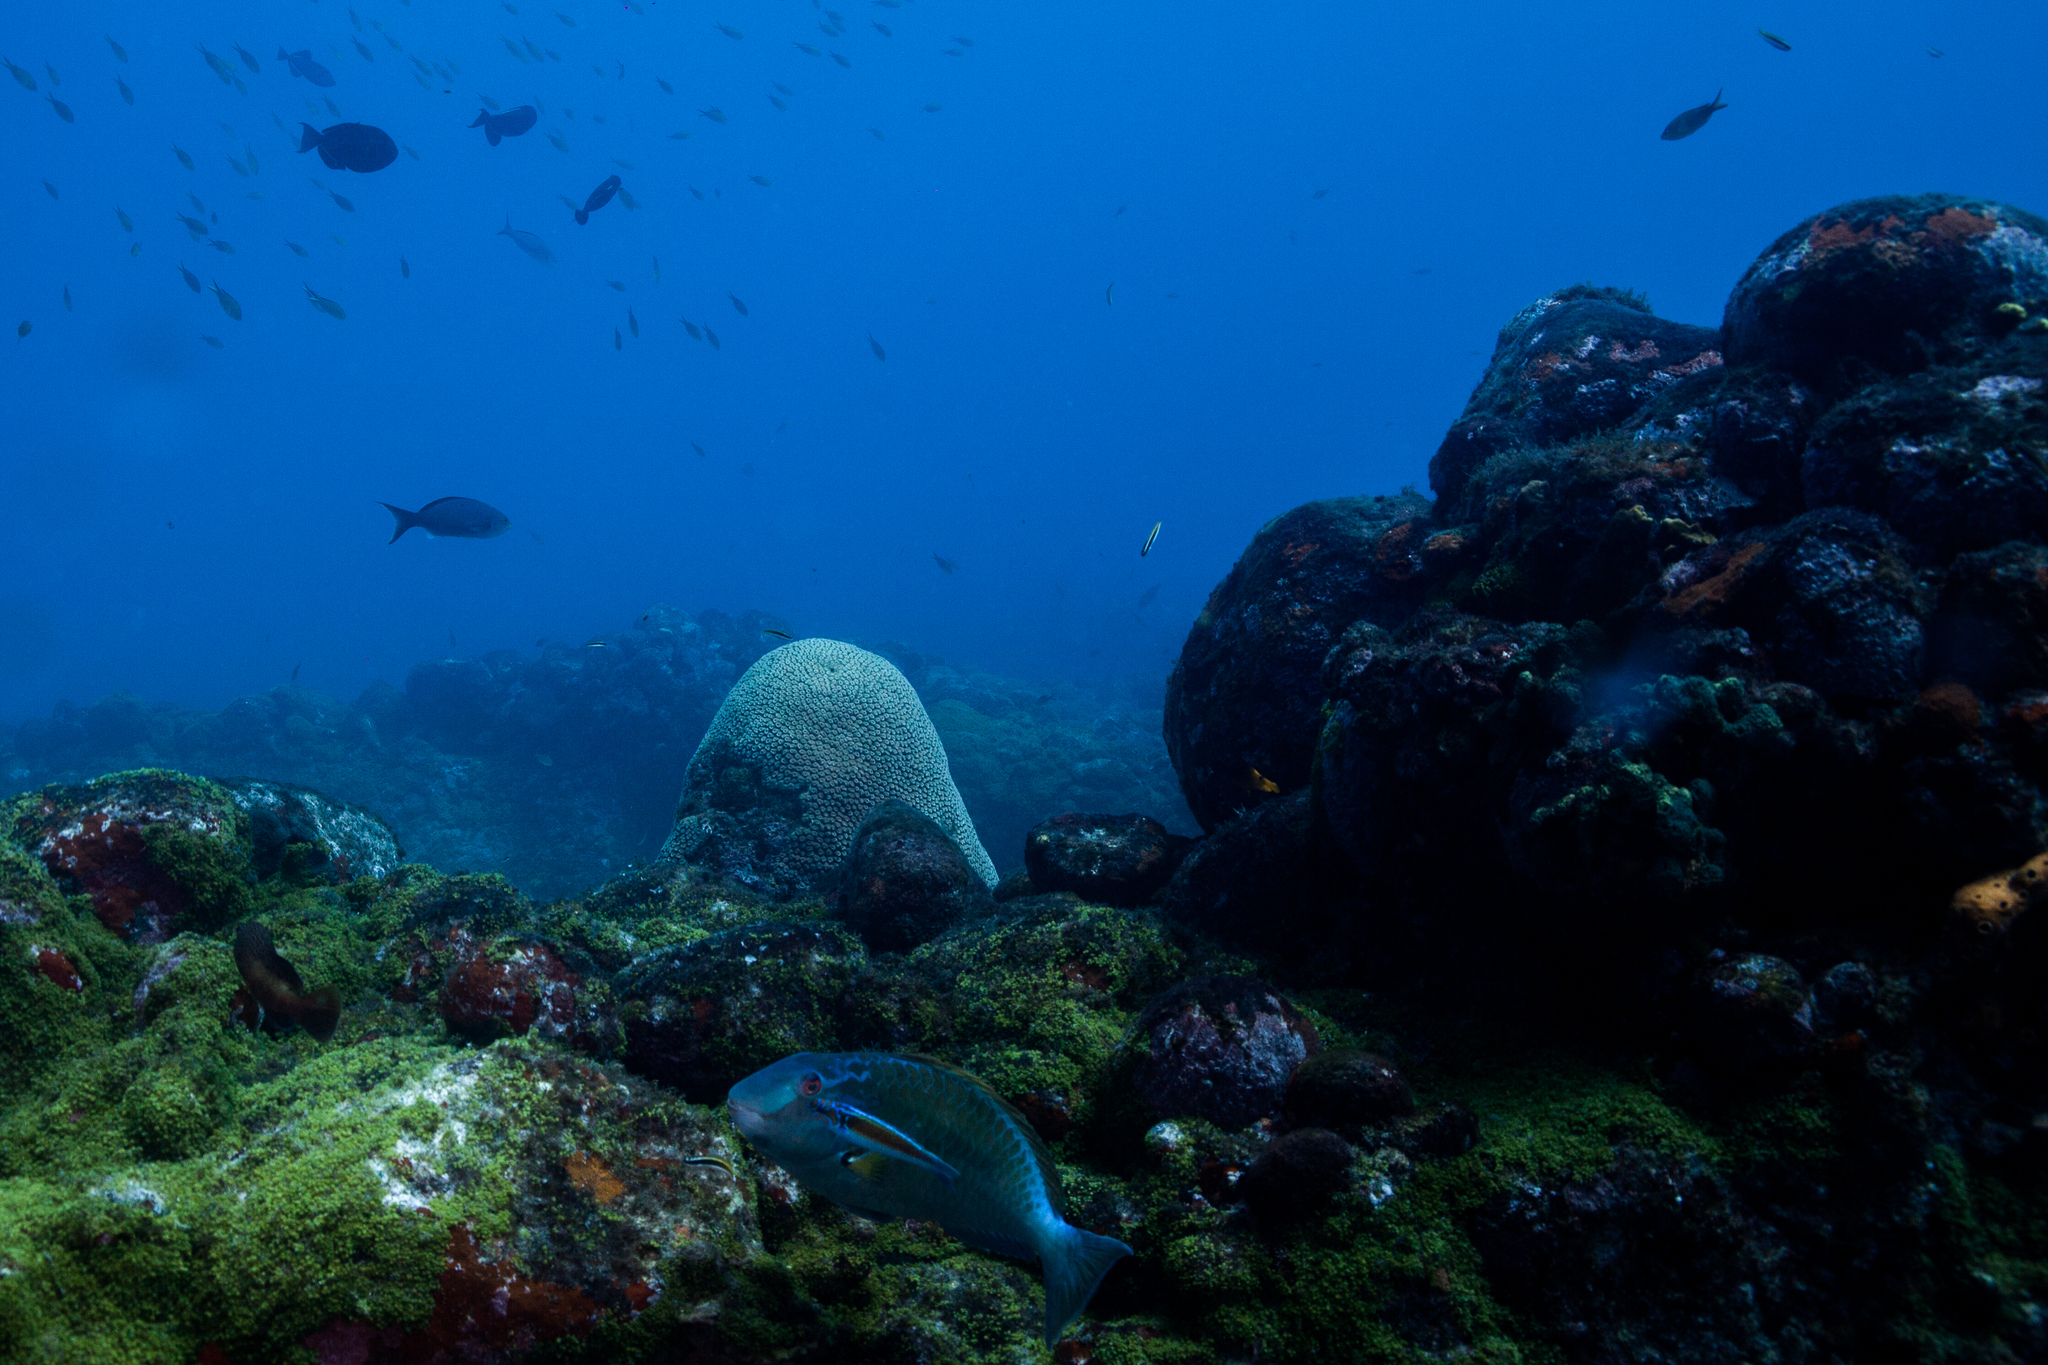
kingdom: Animalia
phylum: Cnidaria
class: Anthozoa
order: Scleractinia
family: Montastraeidae
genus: Montastraea
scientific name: Montastraea cavernosa
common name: Great star coral
